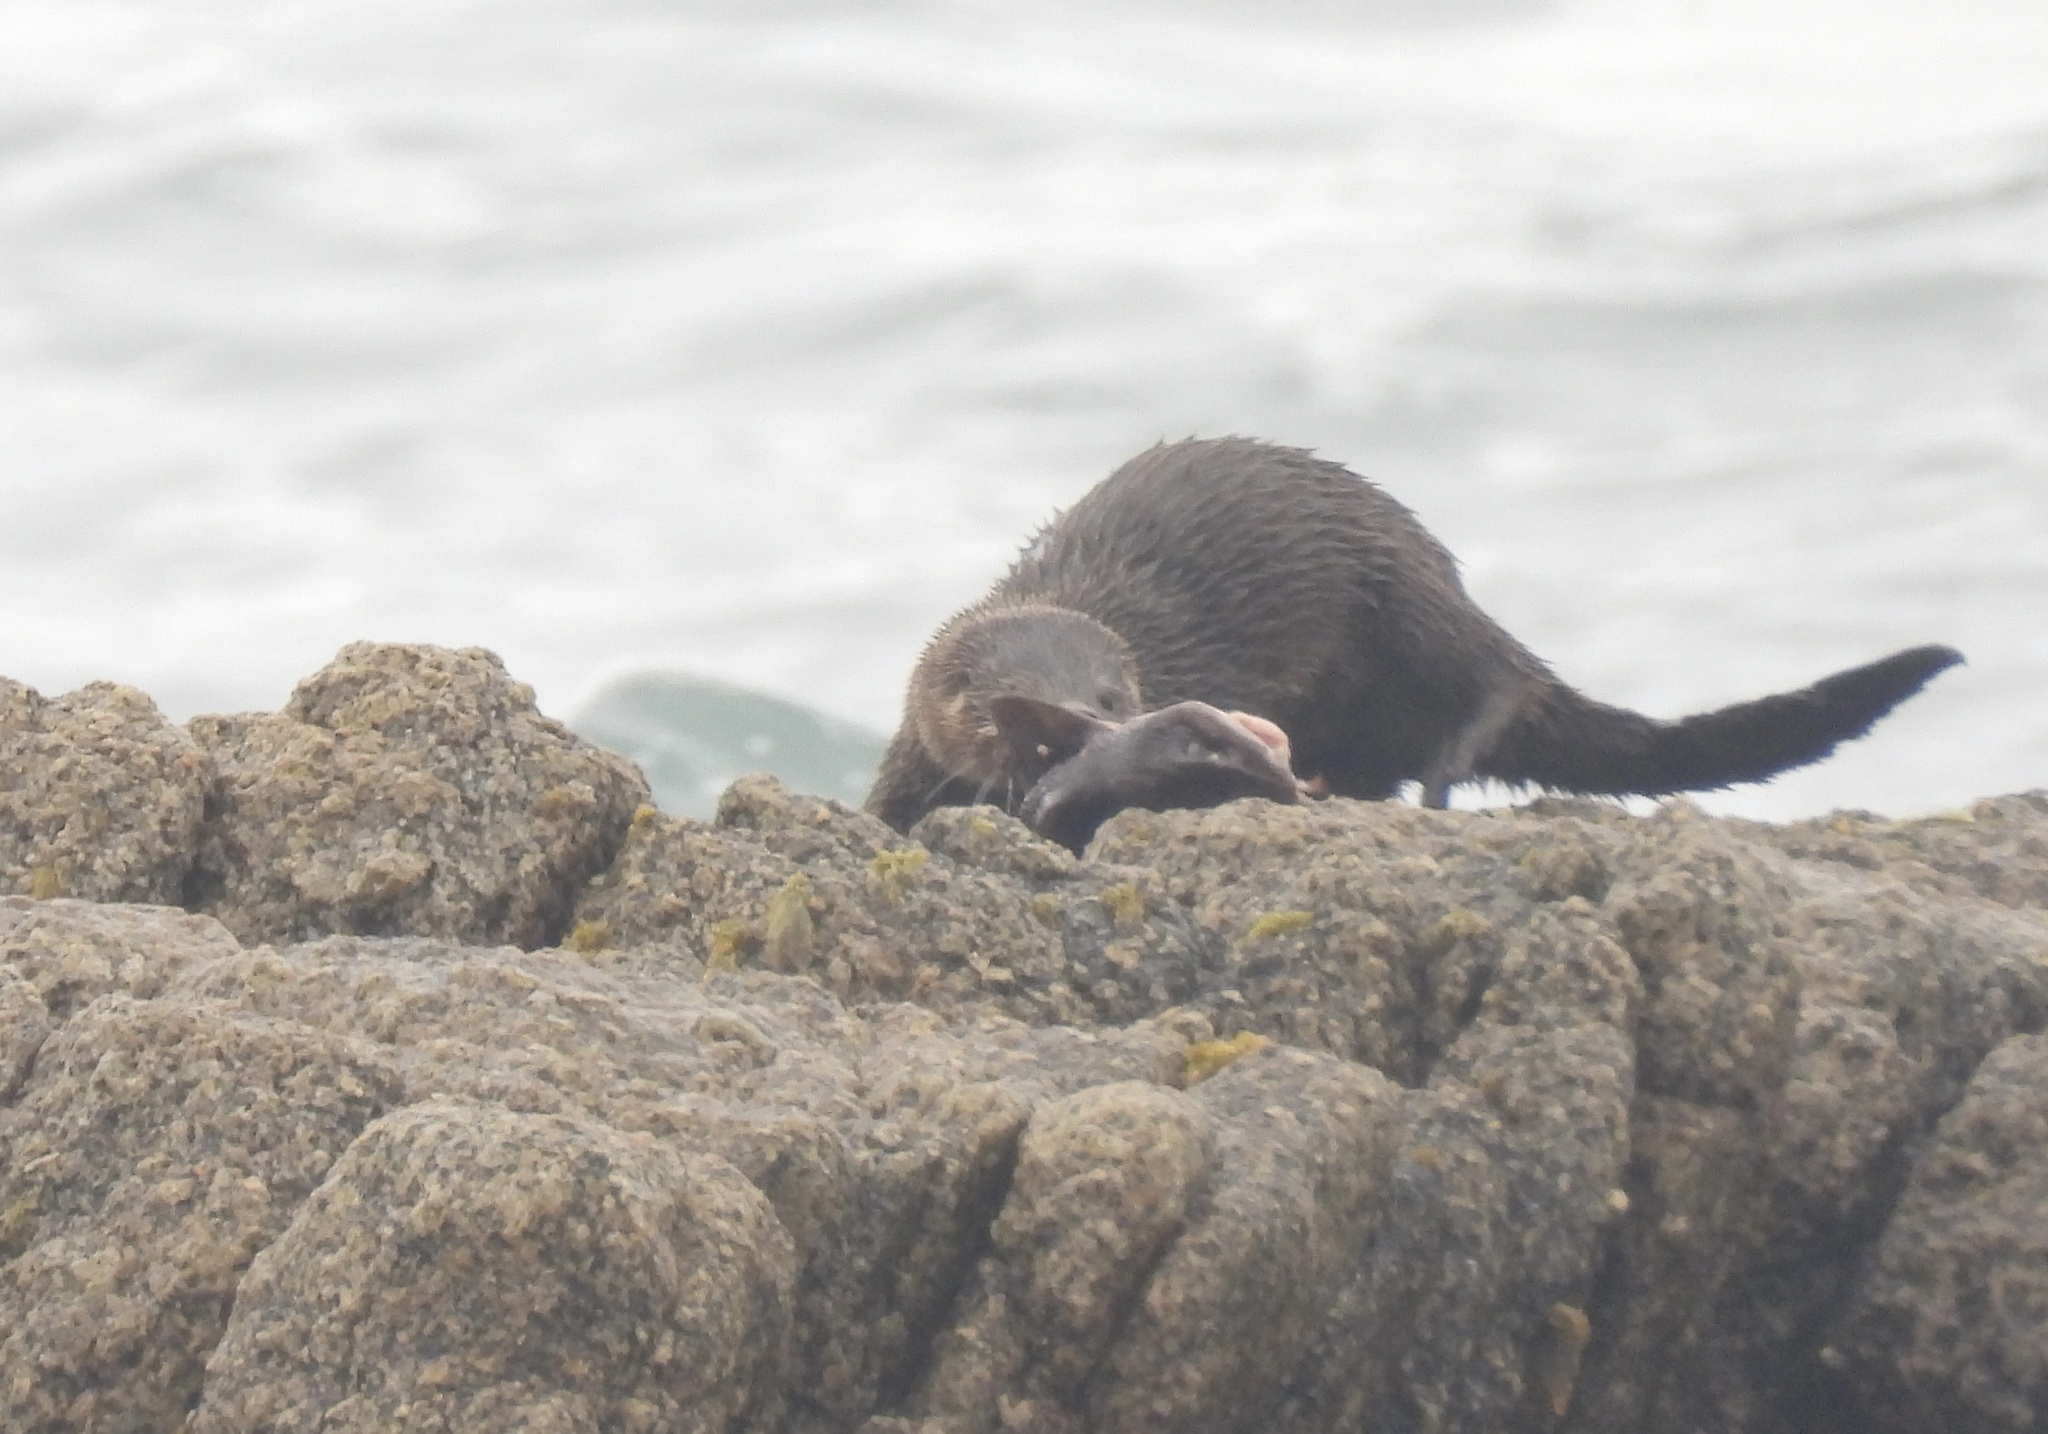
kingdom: Animalia
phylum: Chordata
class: Mammalia
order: Carnivora
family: Mustelidae
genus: Lontra
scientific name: Lontra felina
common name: Marine otter
